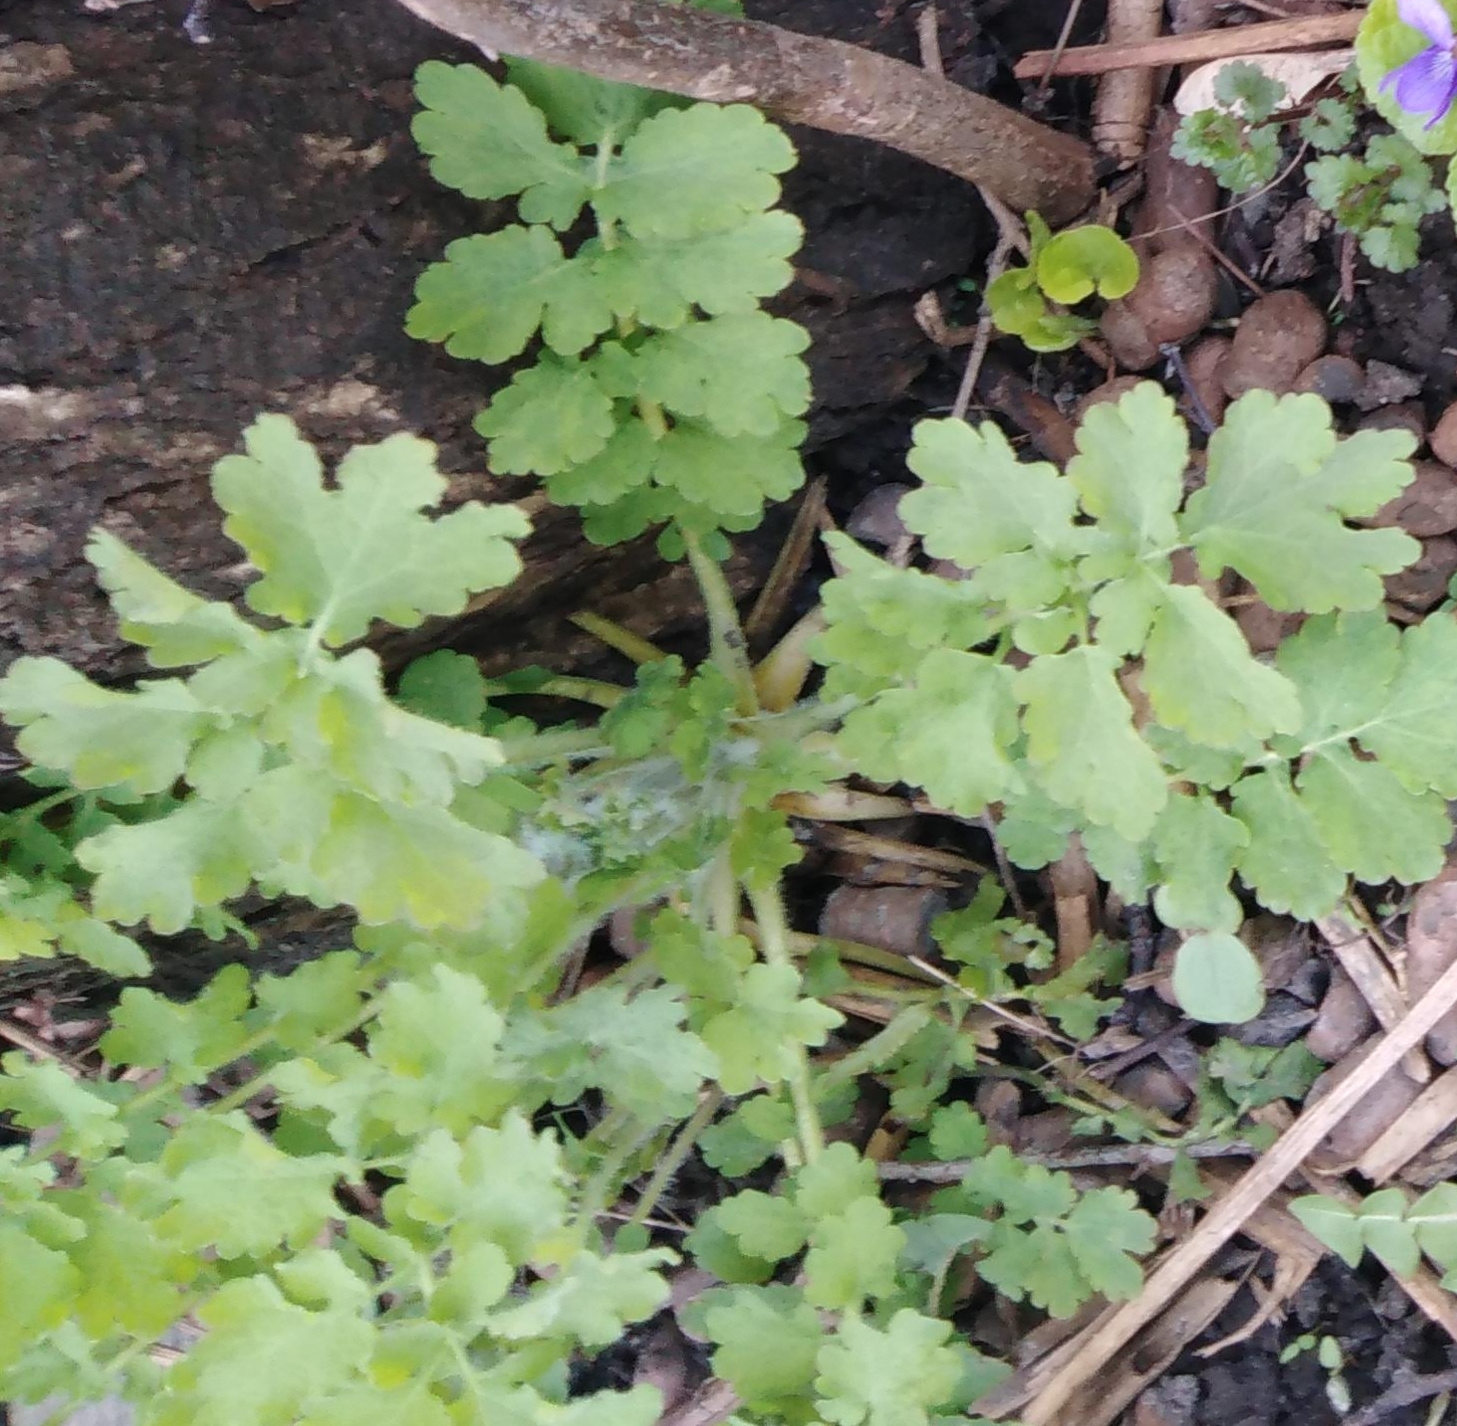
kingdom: Plantae
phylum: Tracheophyta
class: Magnoliopsida
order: Ranunculales
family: Papaveraceae
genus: Chelidonium
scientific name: Chelidonium majus
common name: Greater celandine
